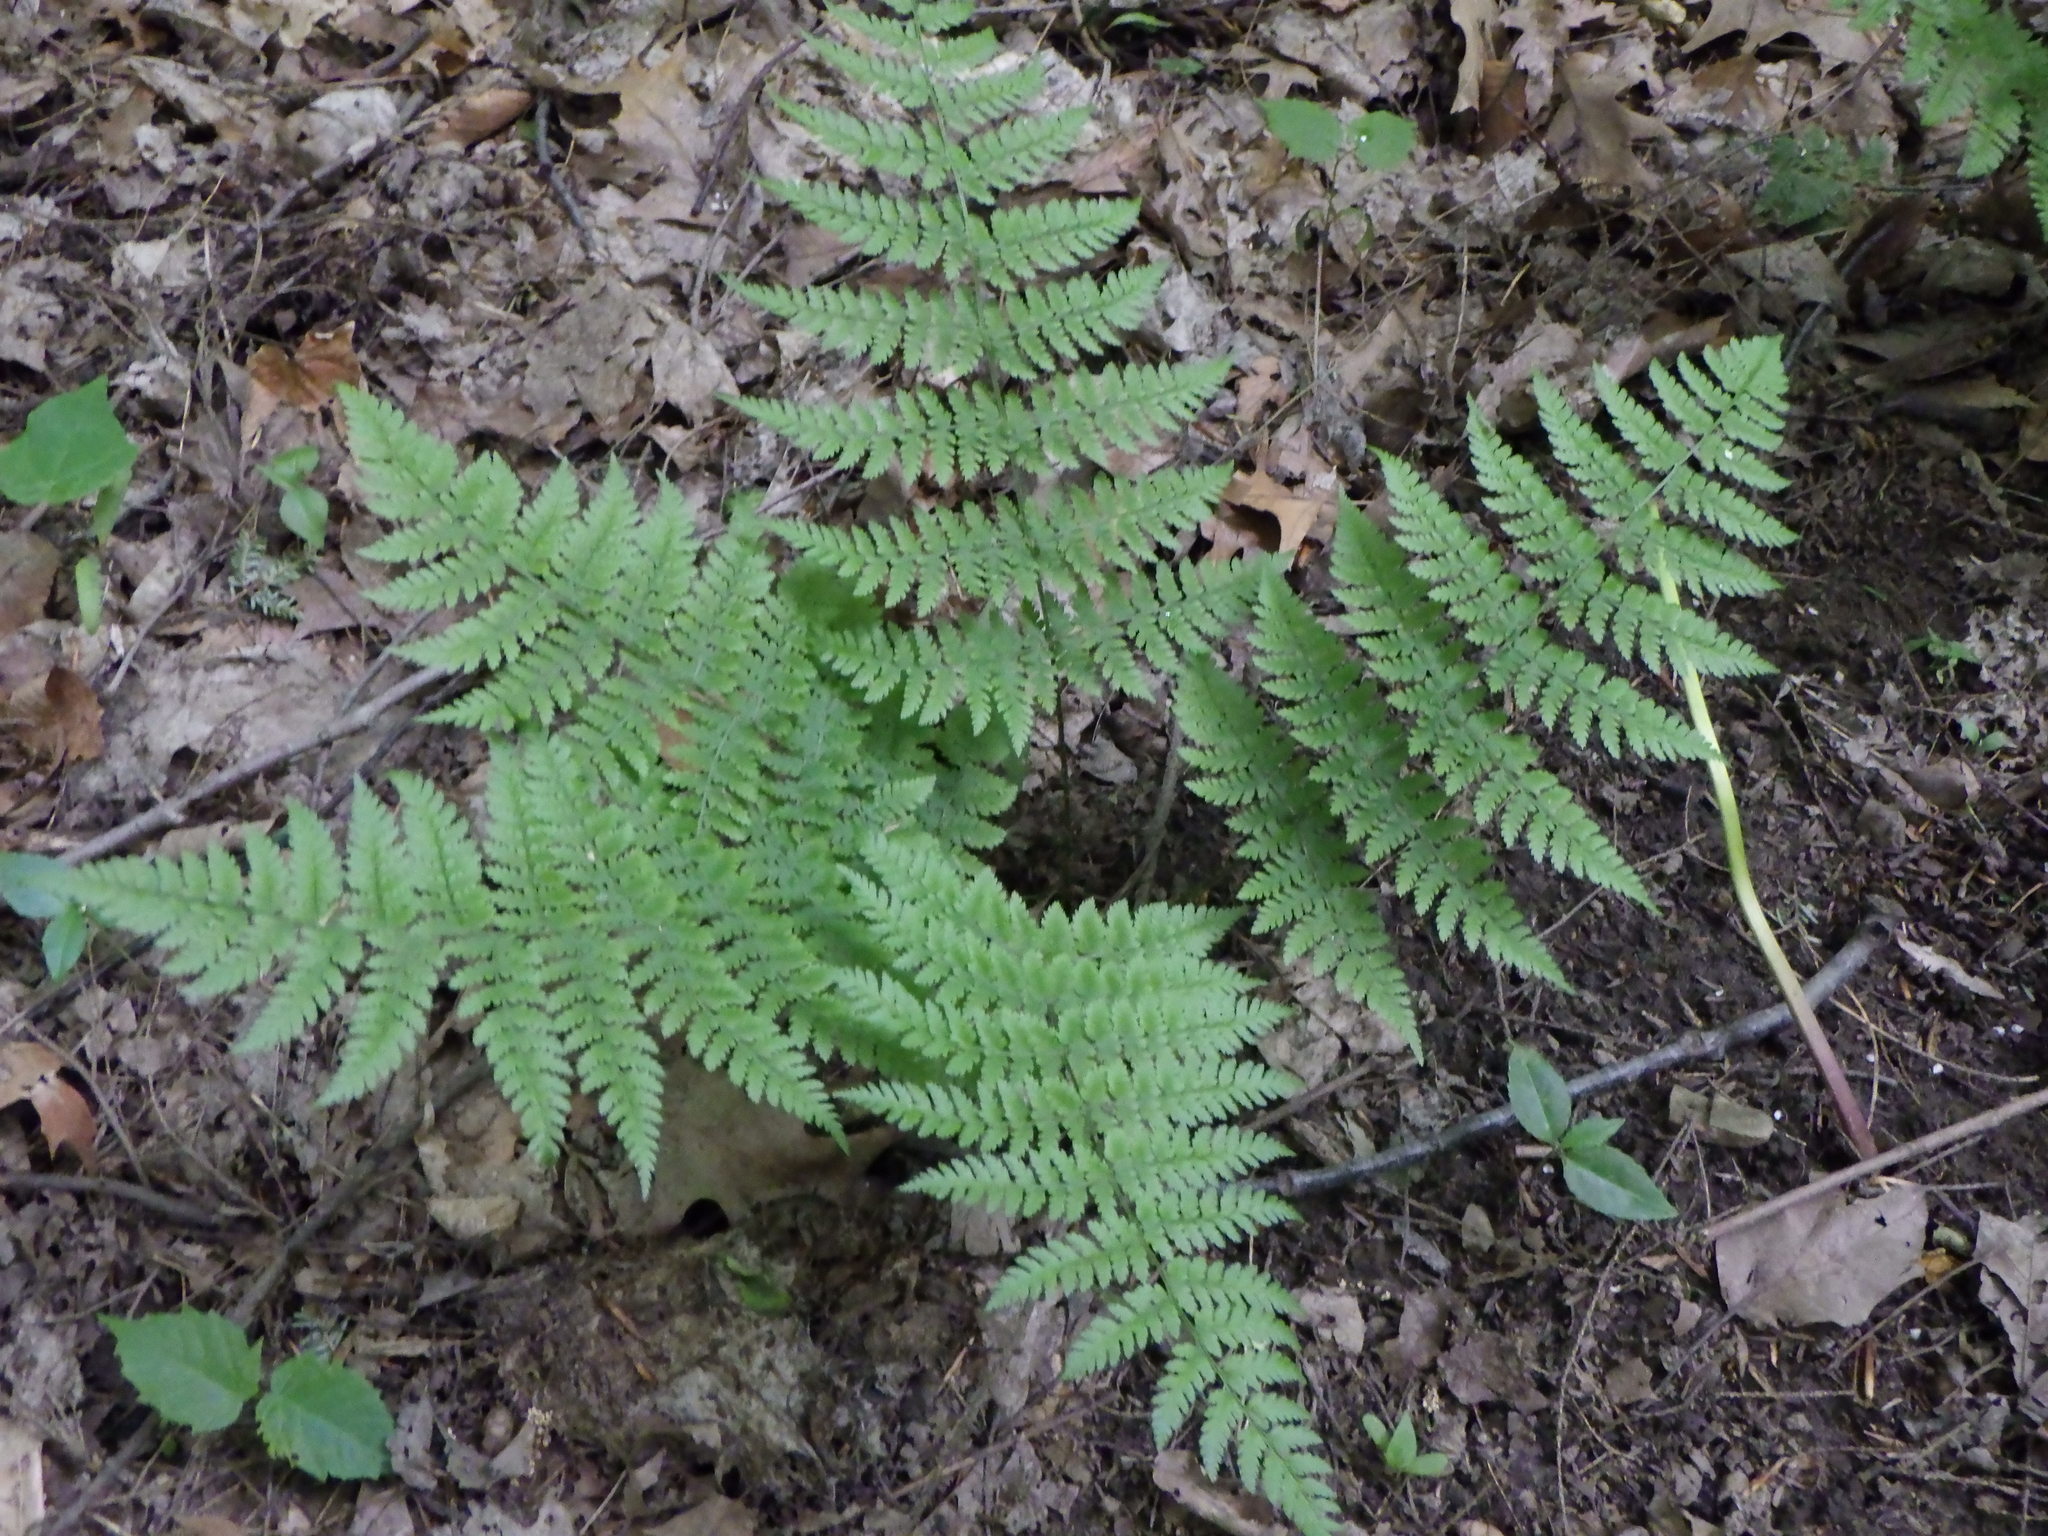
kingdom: Plantae
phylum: Tracheophyta
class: Polypodiopsida
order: Polypodiales
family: Dryopteridaceae
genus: Dryopteris
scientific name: Dryopteris intermedia
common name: Evergreen wood fern
